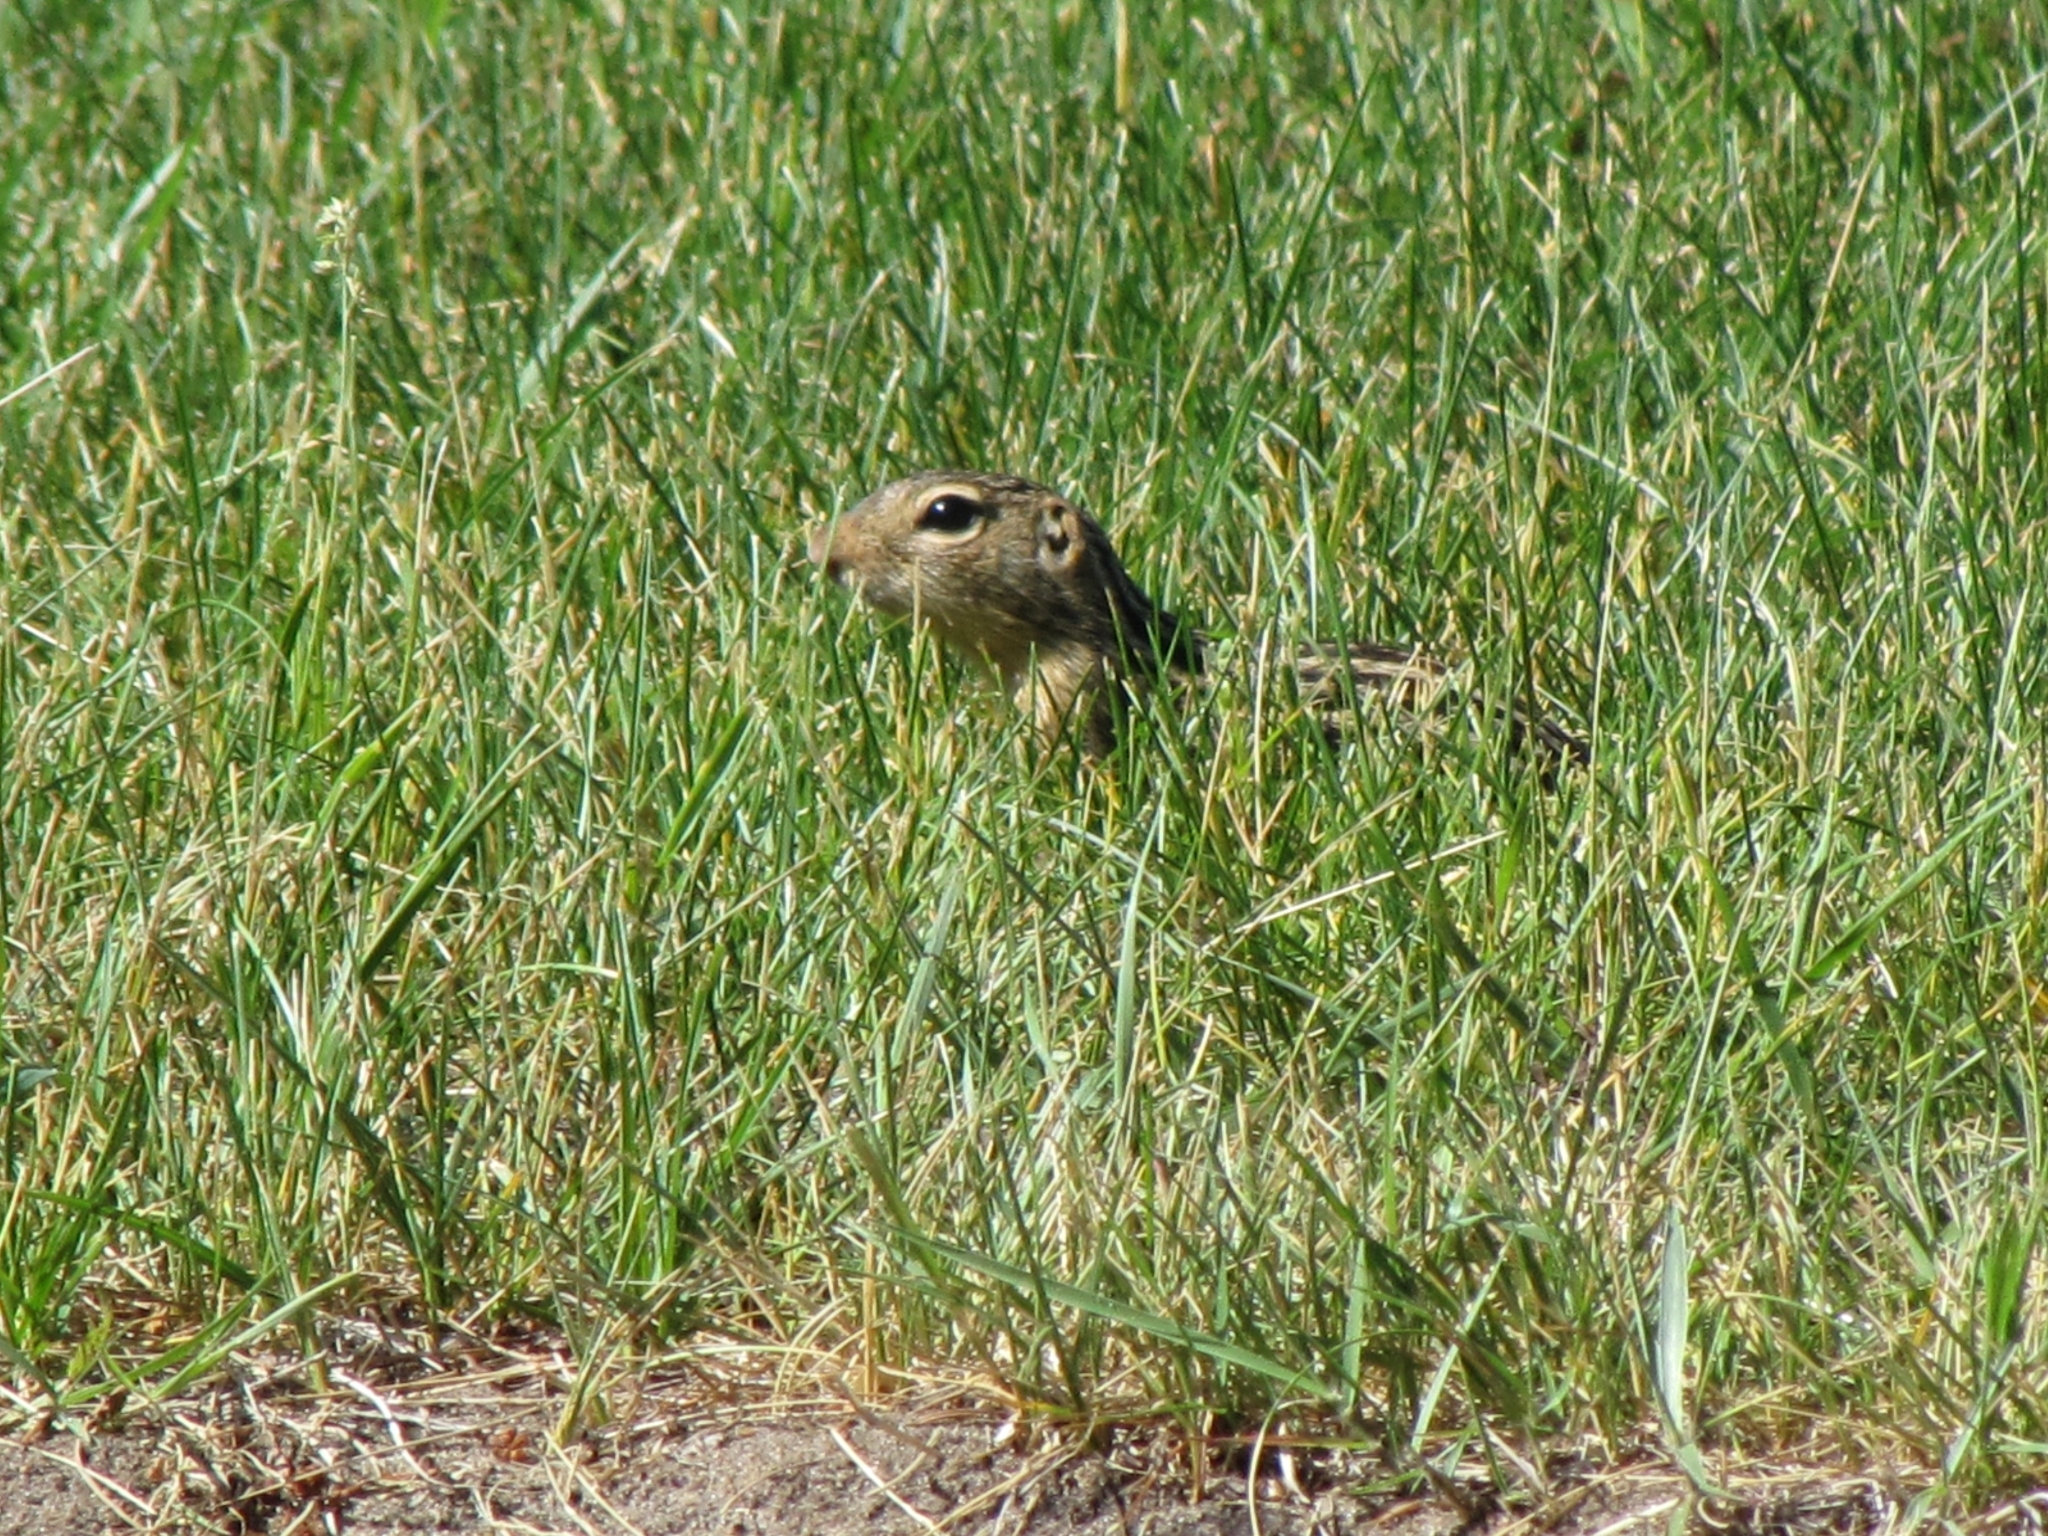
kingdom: Animalia
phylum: Chordata
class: Mammalia
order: Rodentia
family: Sciuridae
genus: Ictidomys
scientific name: Ictidomys tridecemlineatus
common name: Thirteen-lined ground squirrel
